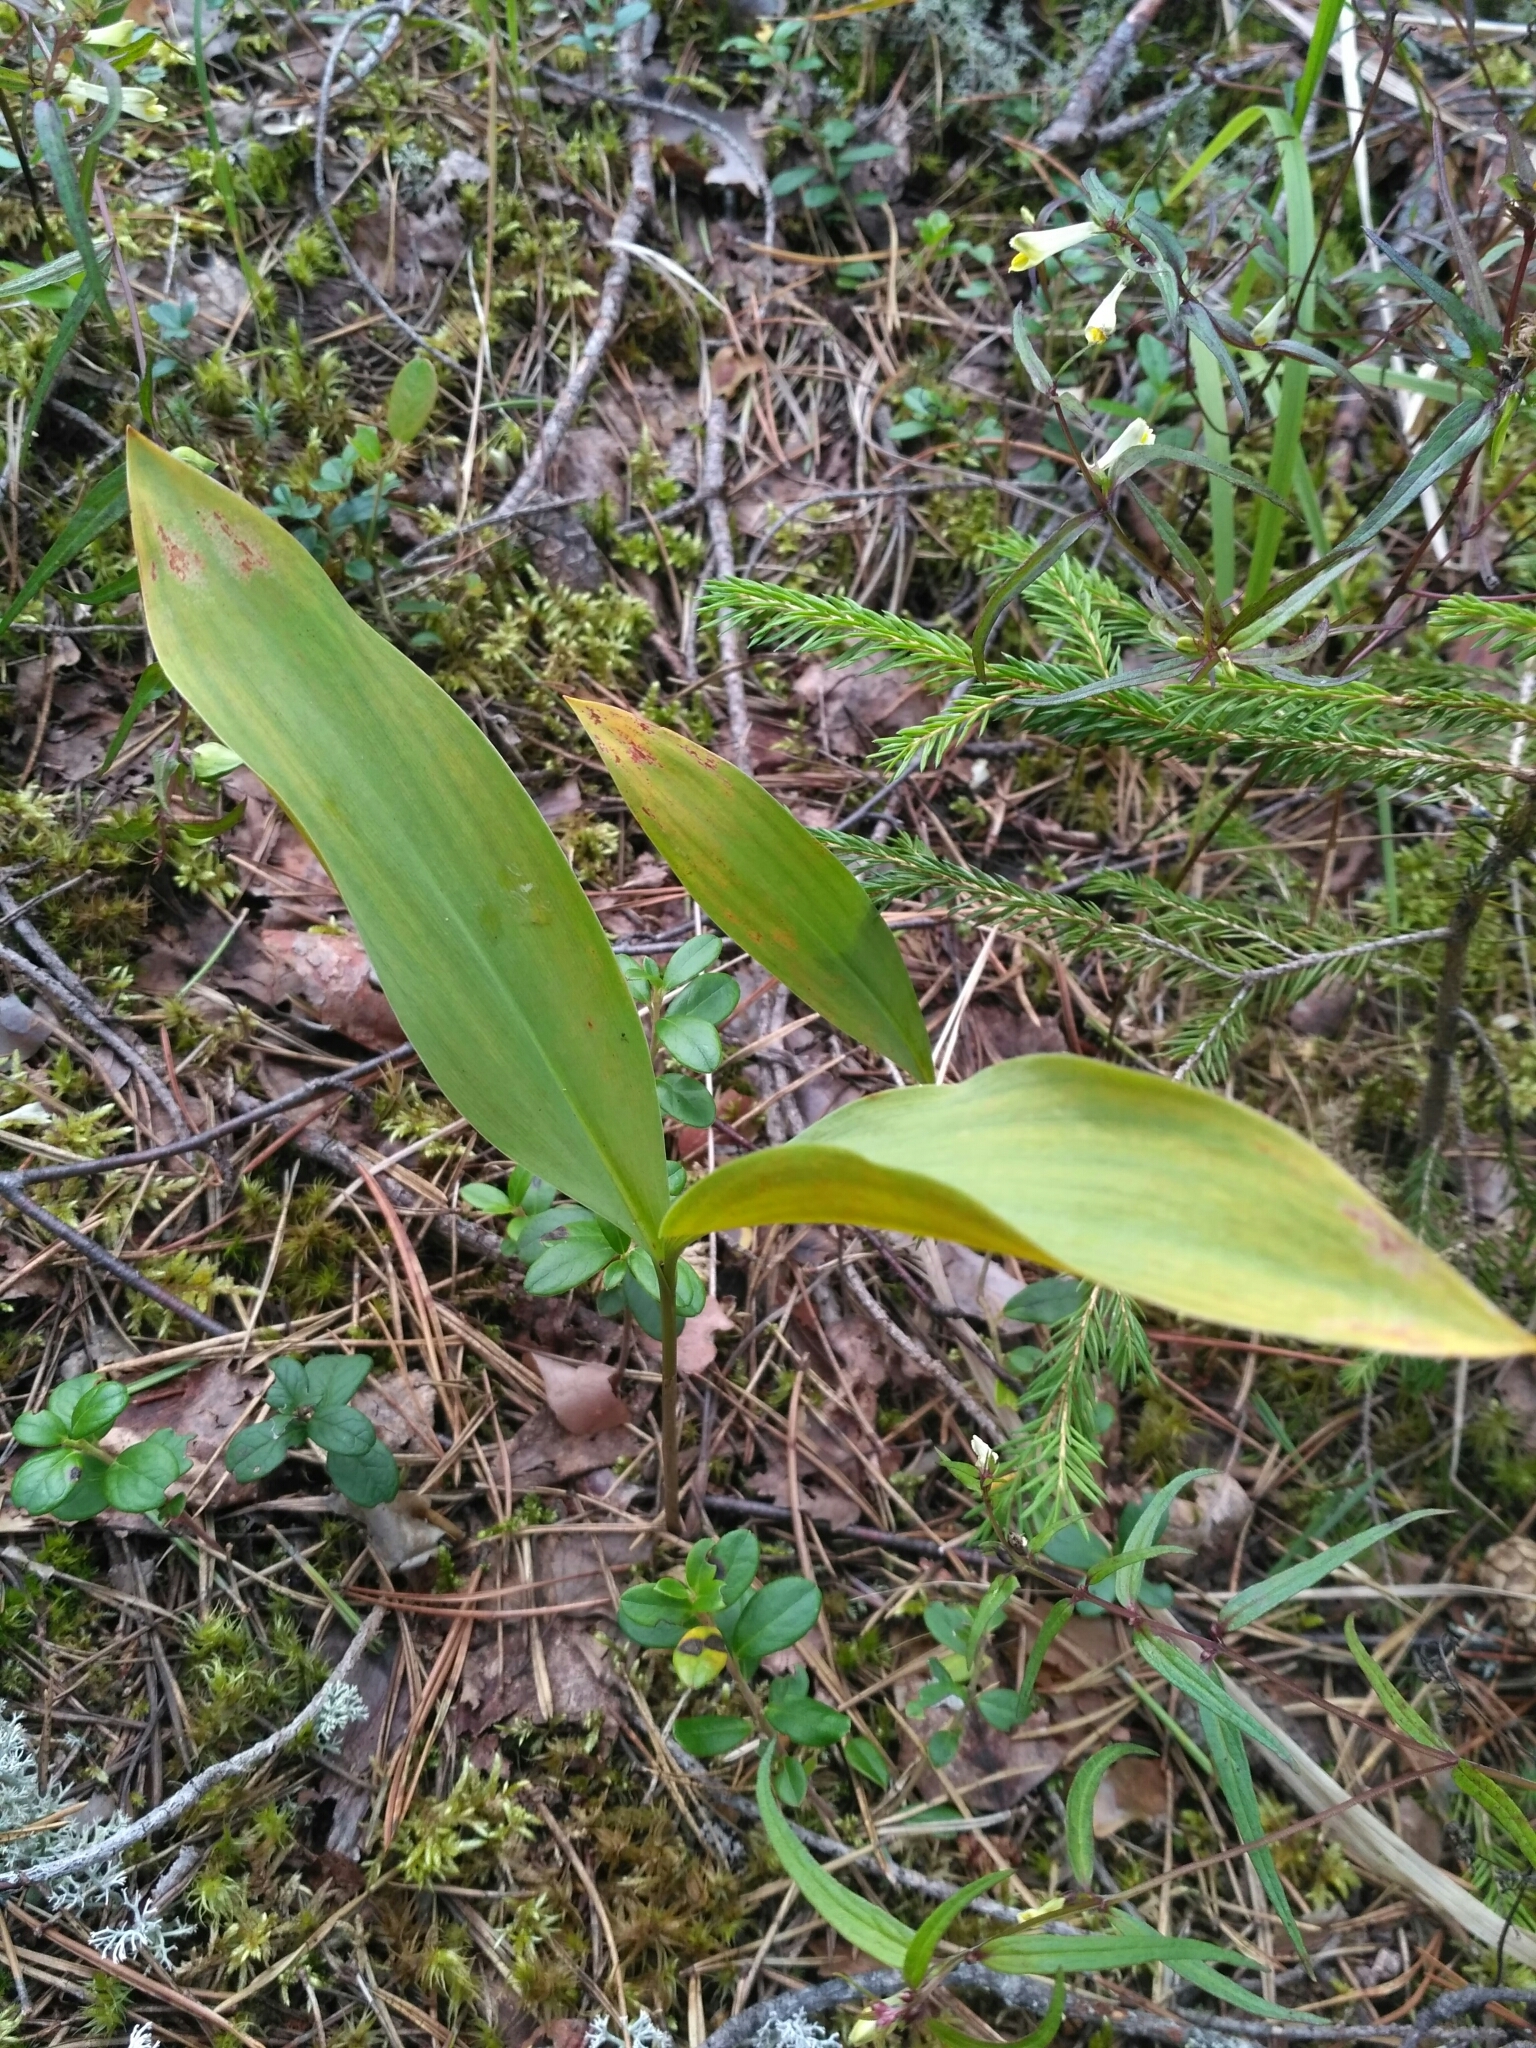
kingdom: Plantae
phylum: Tracheophyta
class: Liliopsida
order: Asparagales
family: Asparagaceae
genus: Convallaria
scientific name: Convallaria majalis
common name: Lily-of-the-valley
